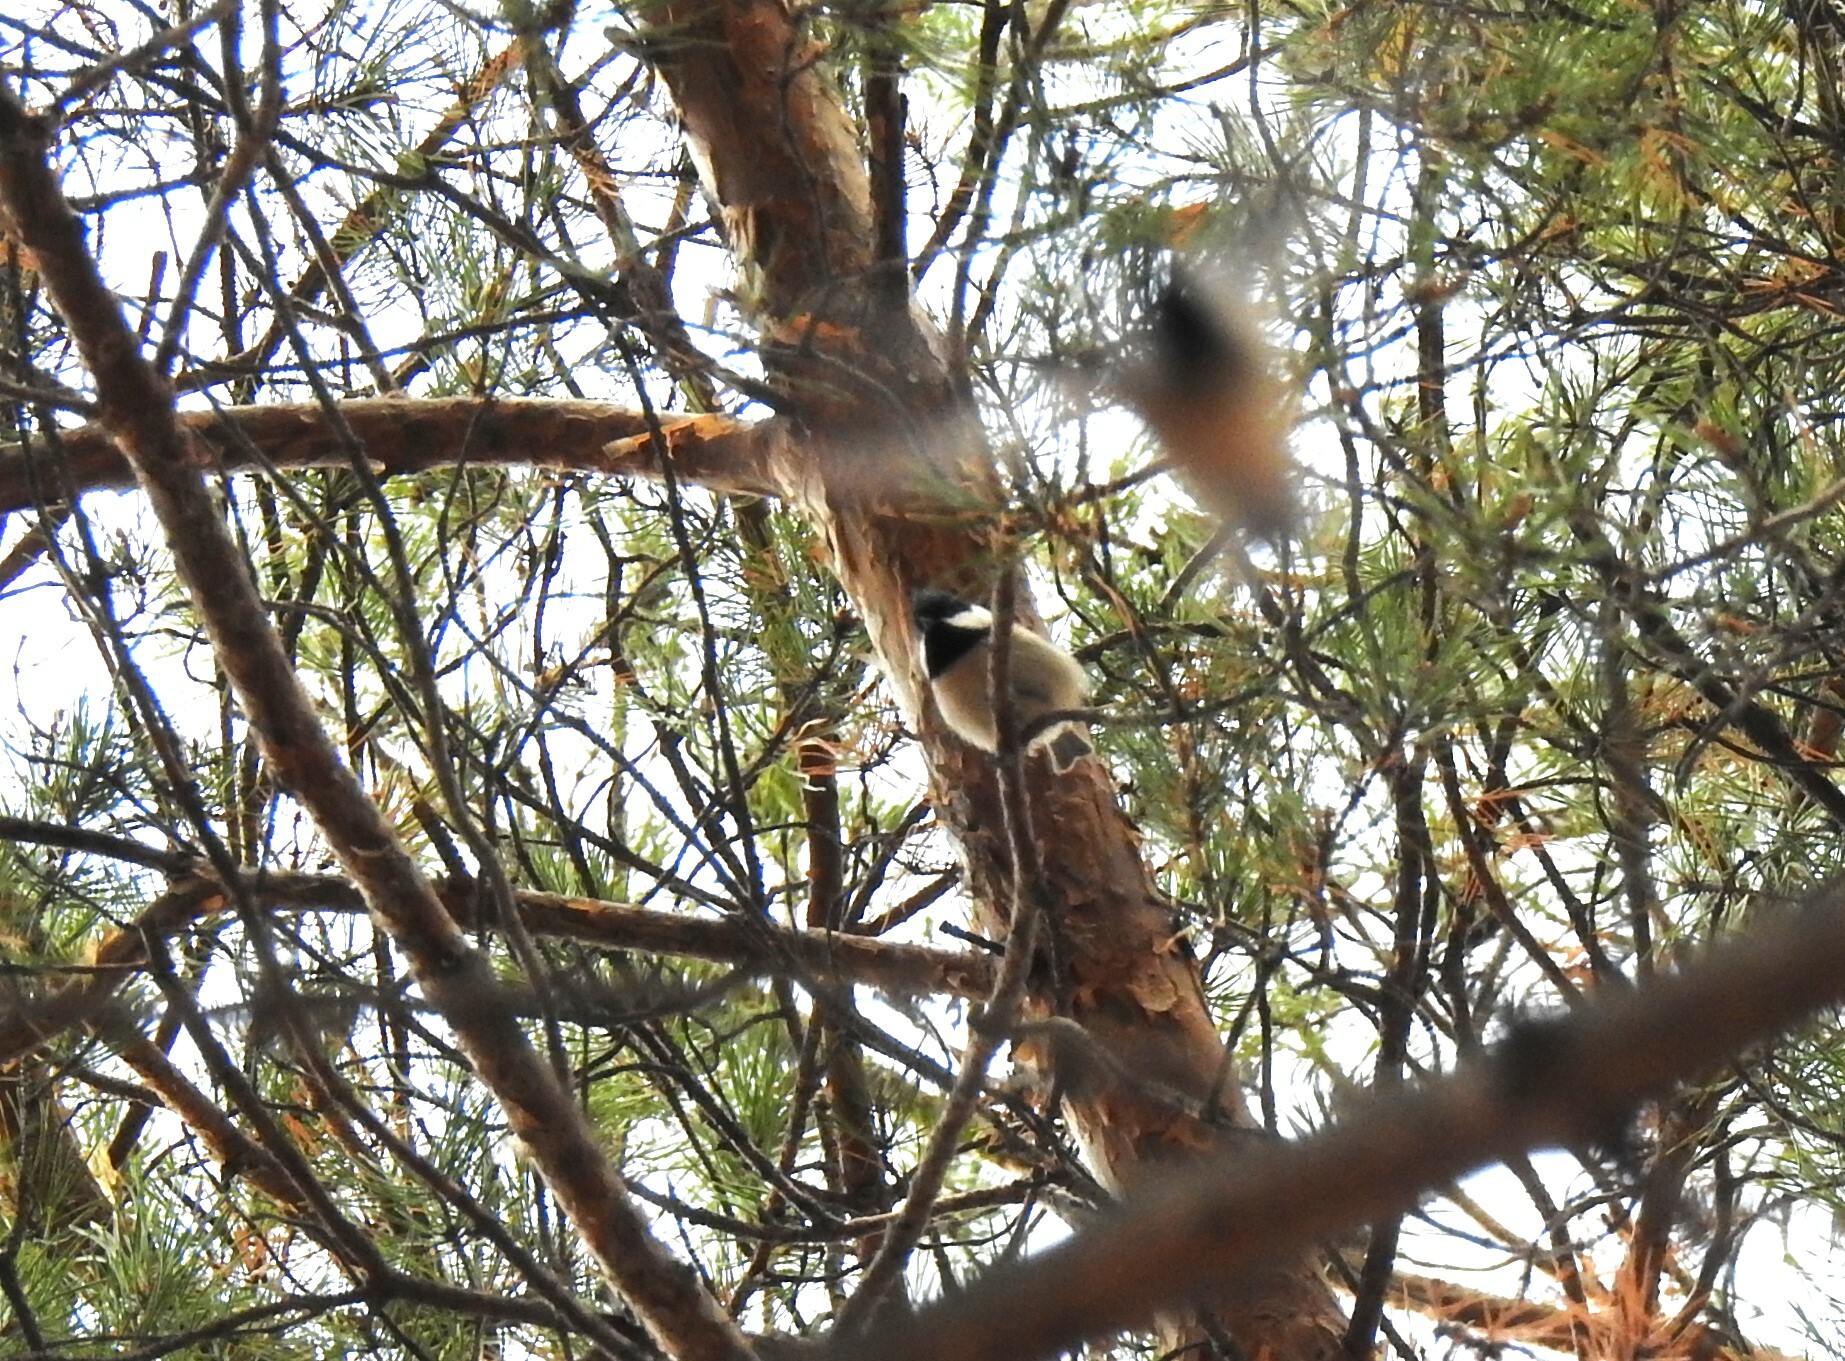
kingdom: Animalia
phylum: Chordata
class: Aves
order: Passeriformes
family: Paridae
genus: Periparus
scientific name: Periparus ater
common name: Coal tit
